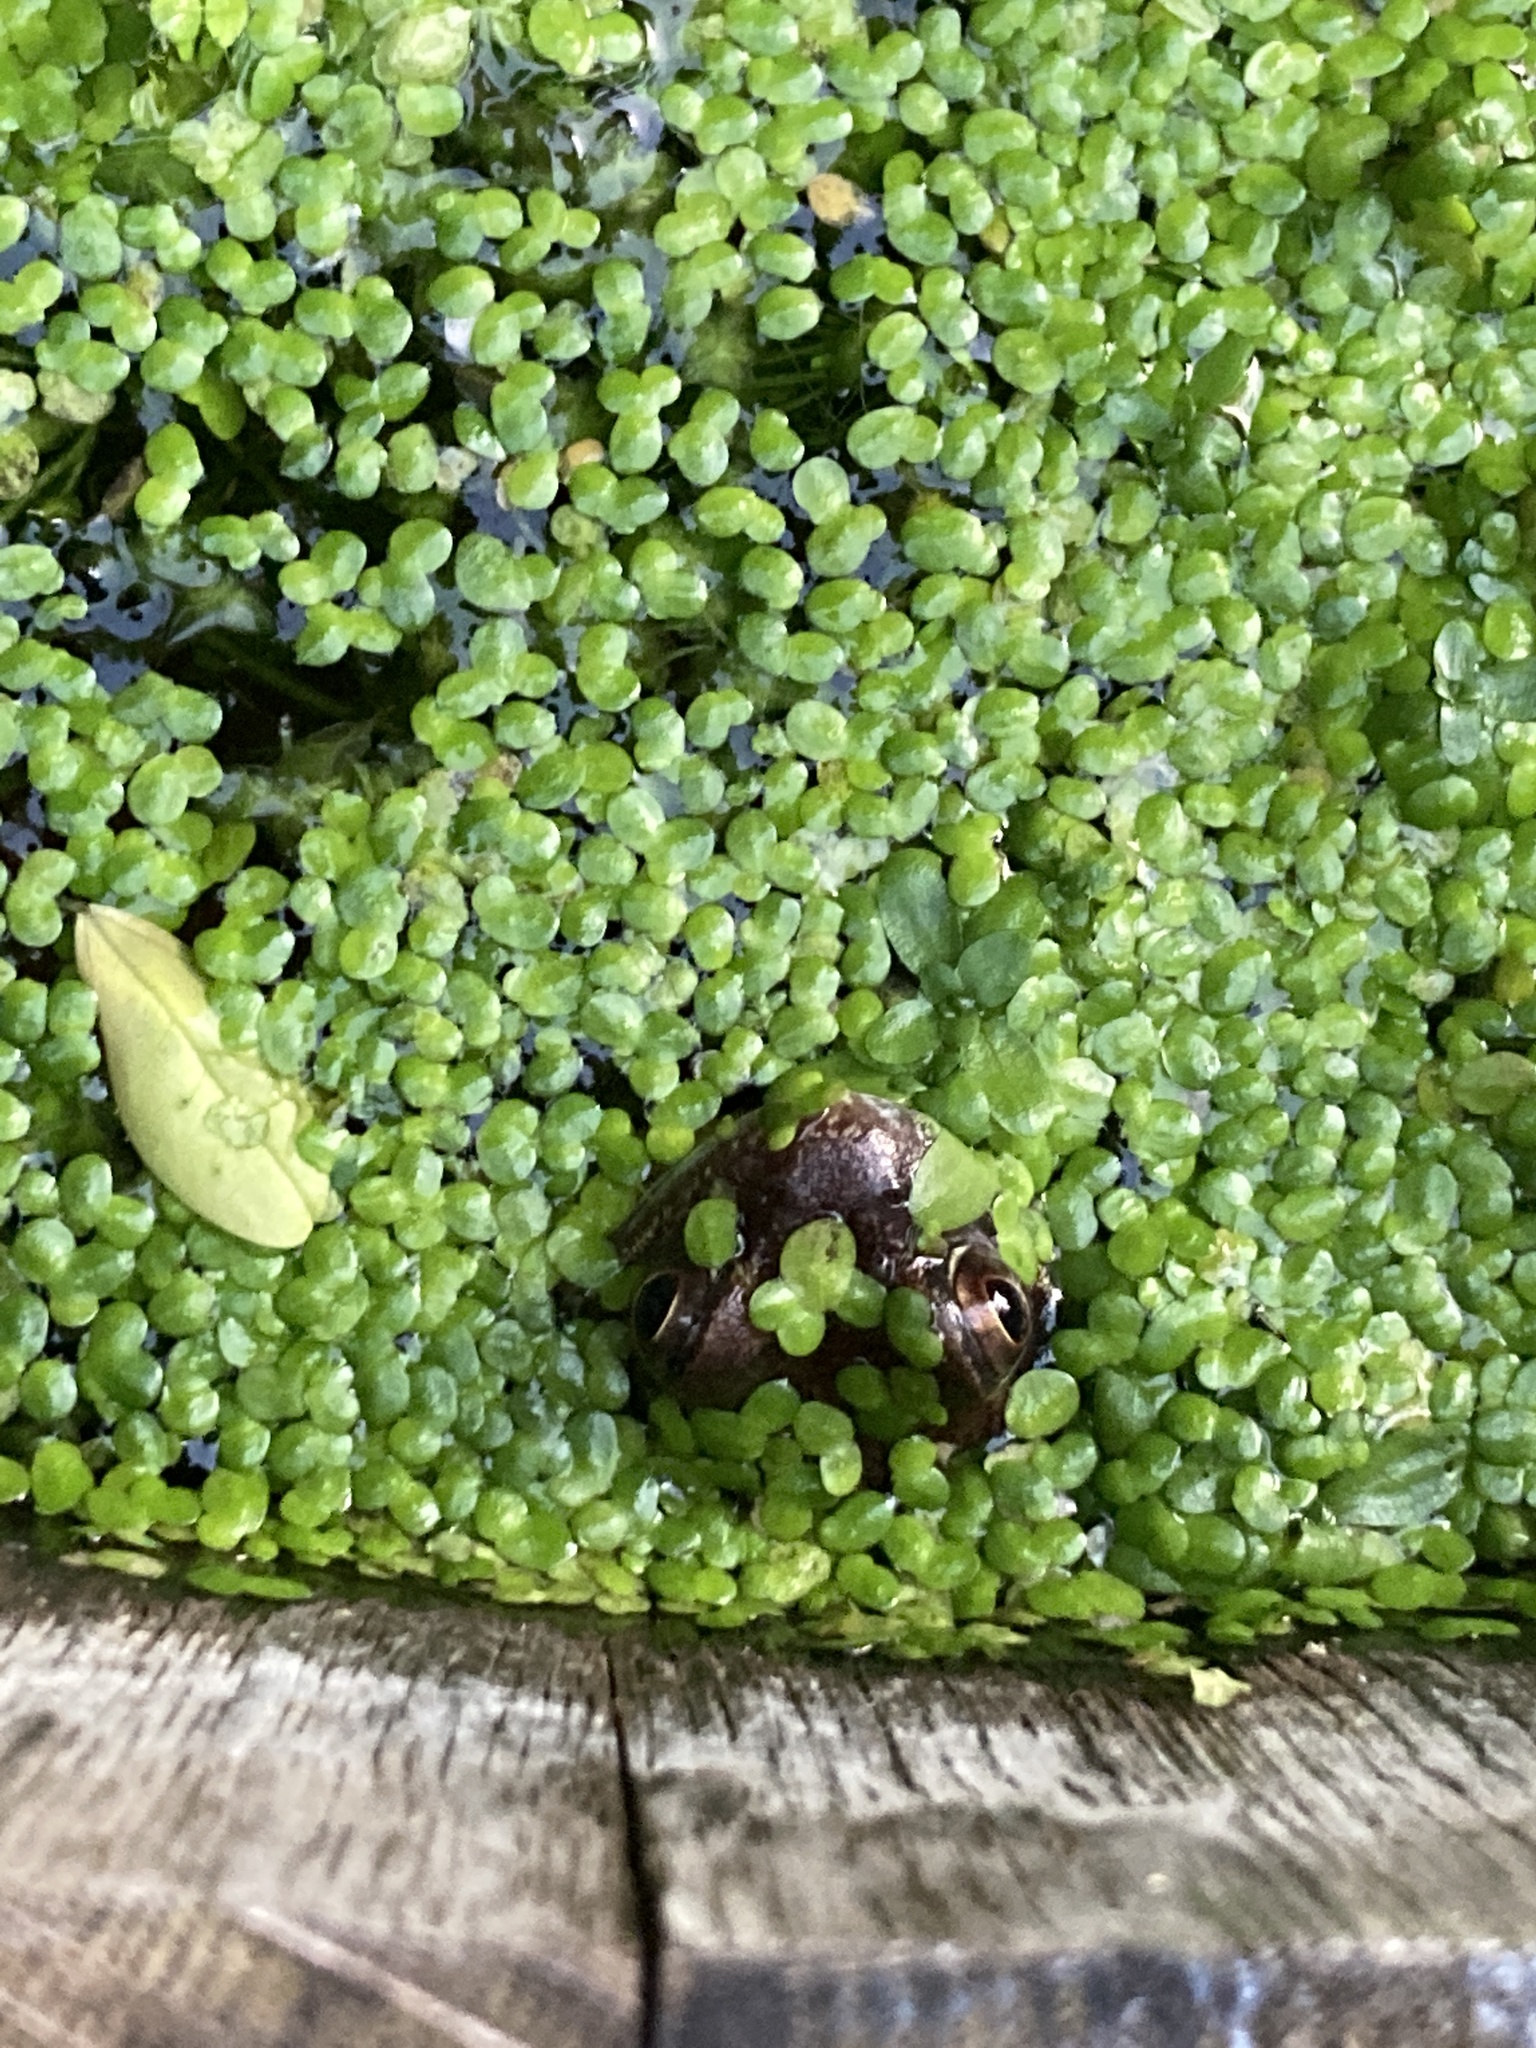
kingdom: Animalia
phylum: Chordata
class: Amphibia
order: Anura
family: Ranidae
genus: Rana
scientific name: Rana temporaria
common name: Common frog
